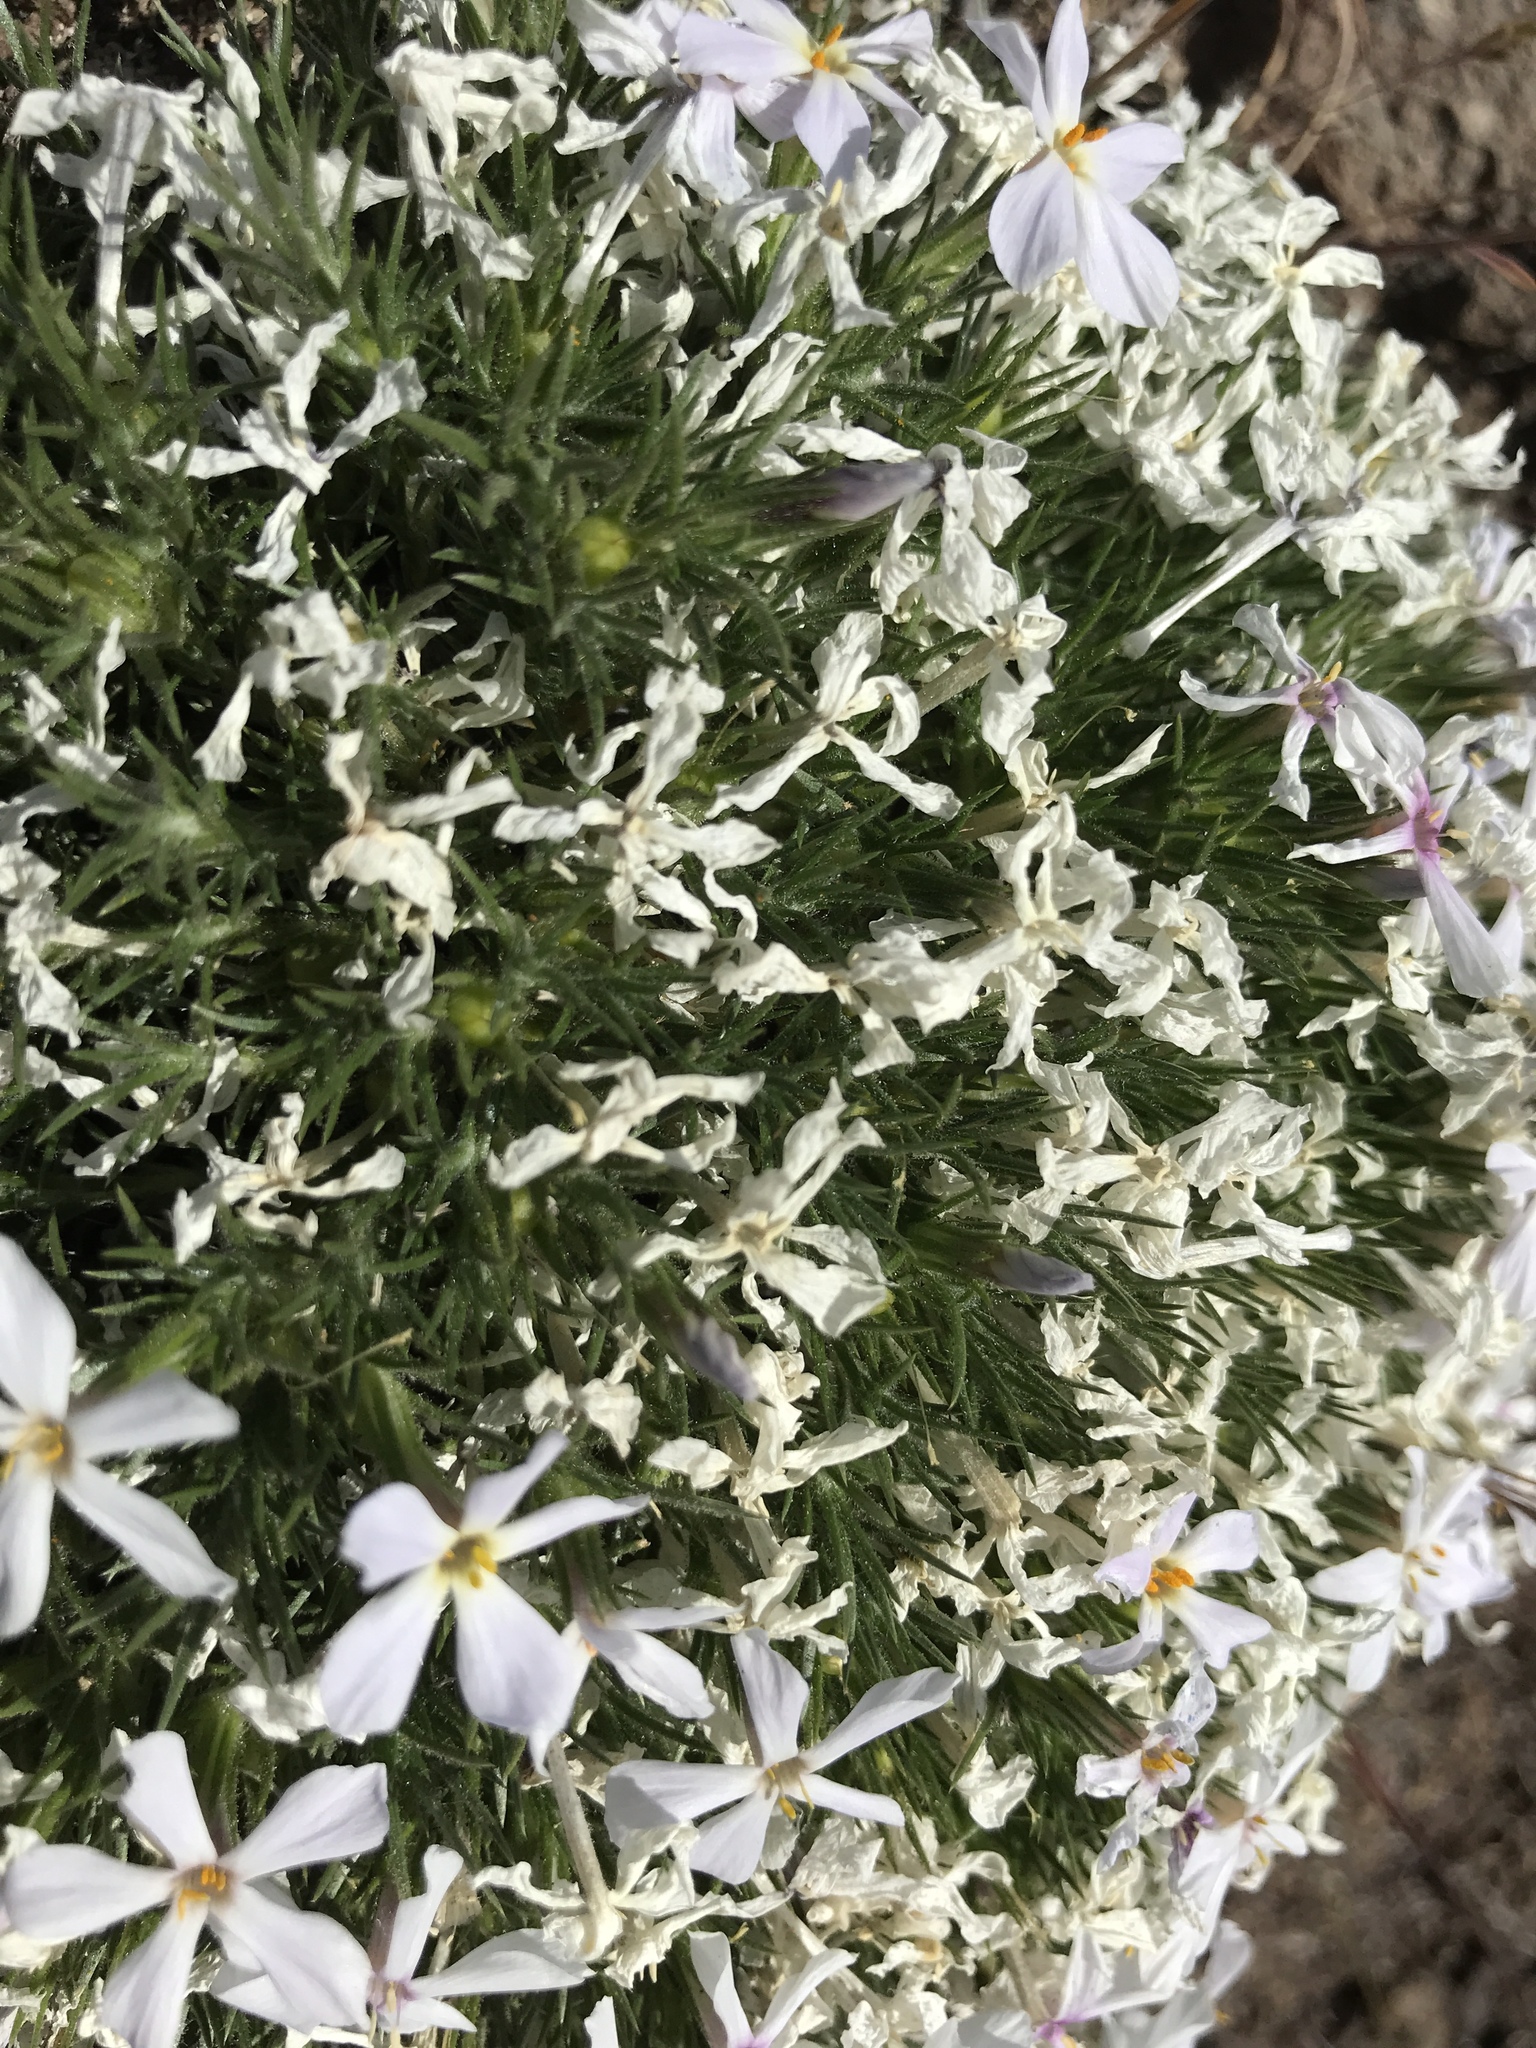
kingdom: Plantae
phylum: Tracheophyta
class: Magnoliopsida
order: Ericales
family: Polemoniaceae
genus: Phlox
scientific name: Phlox douglasii
